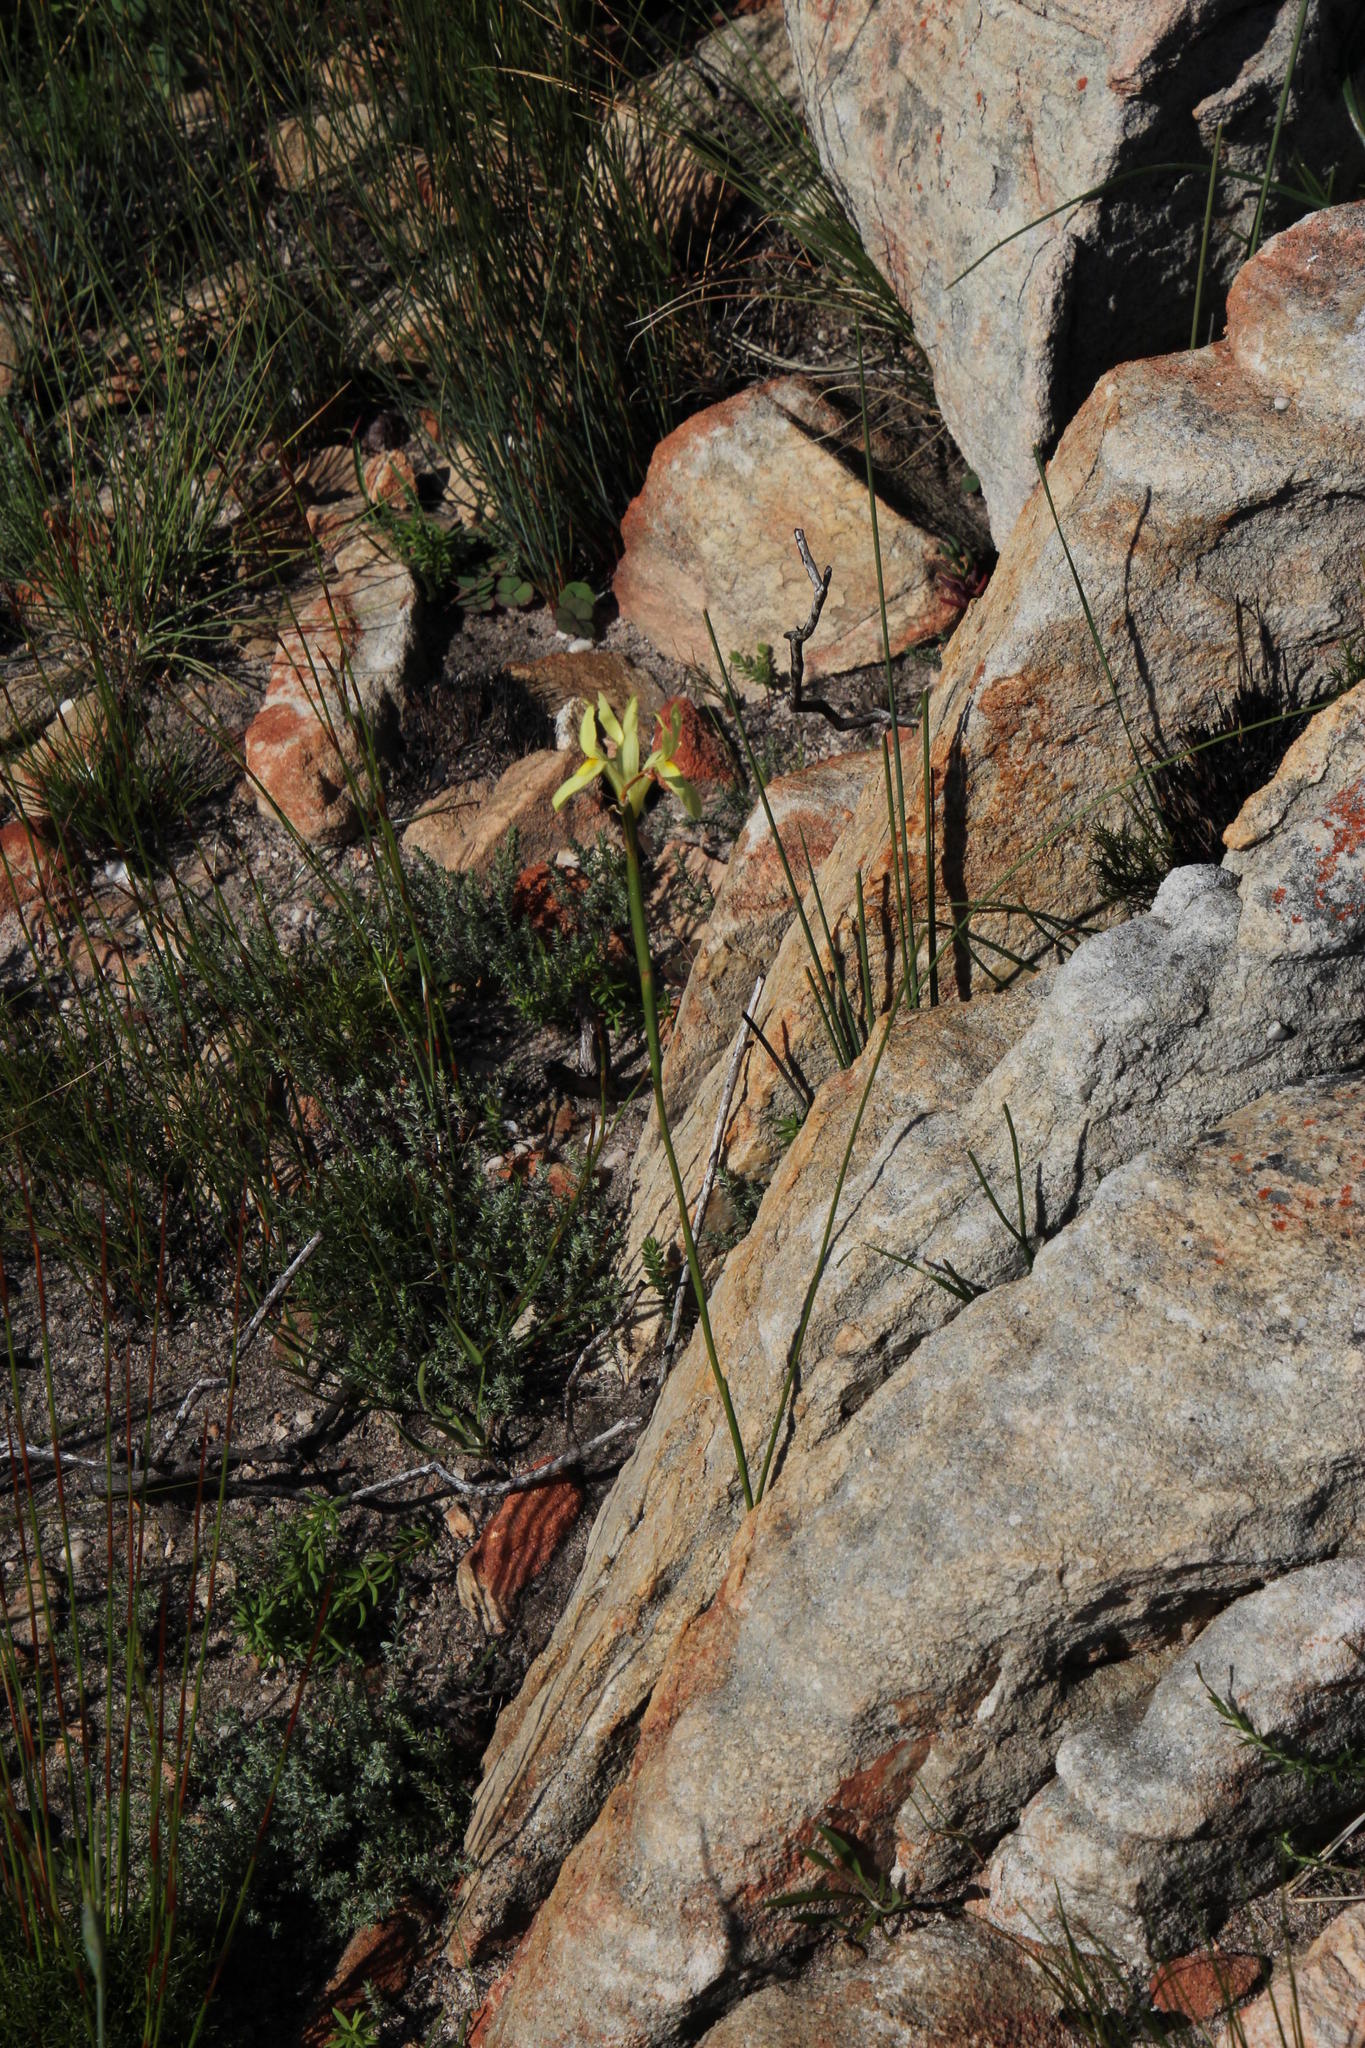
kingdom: Plantae
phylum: Tracheophyta
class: Liliopsida
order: Asparagales
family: Iridaceae
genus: Moraea
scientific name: Moraea angusta
